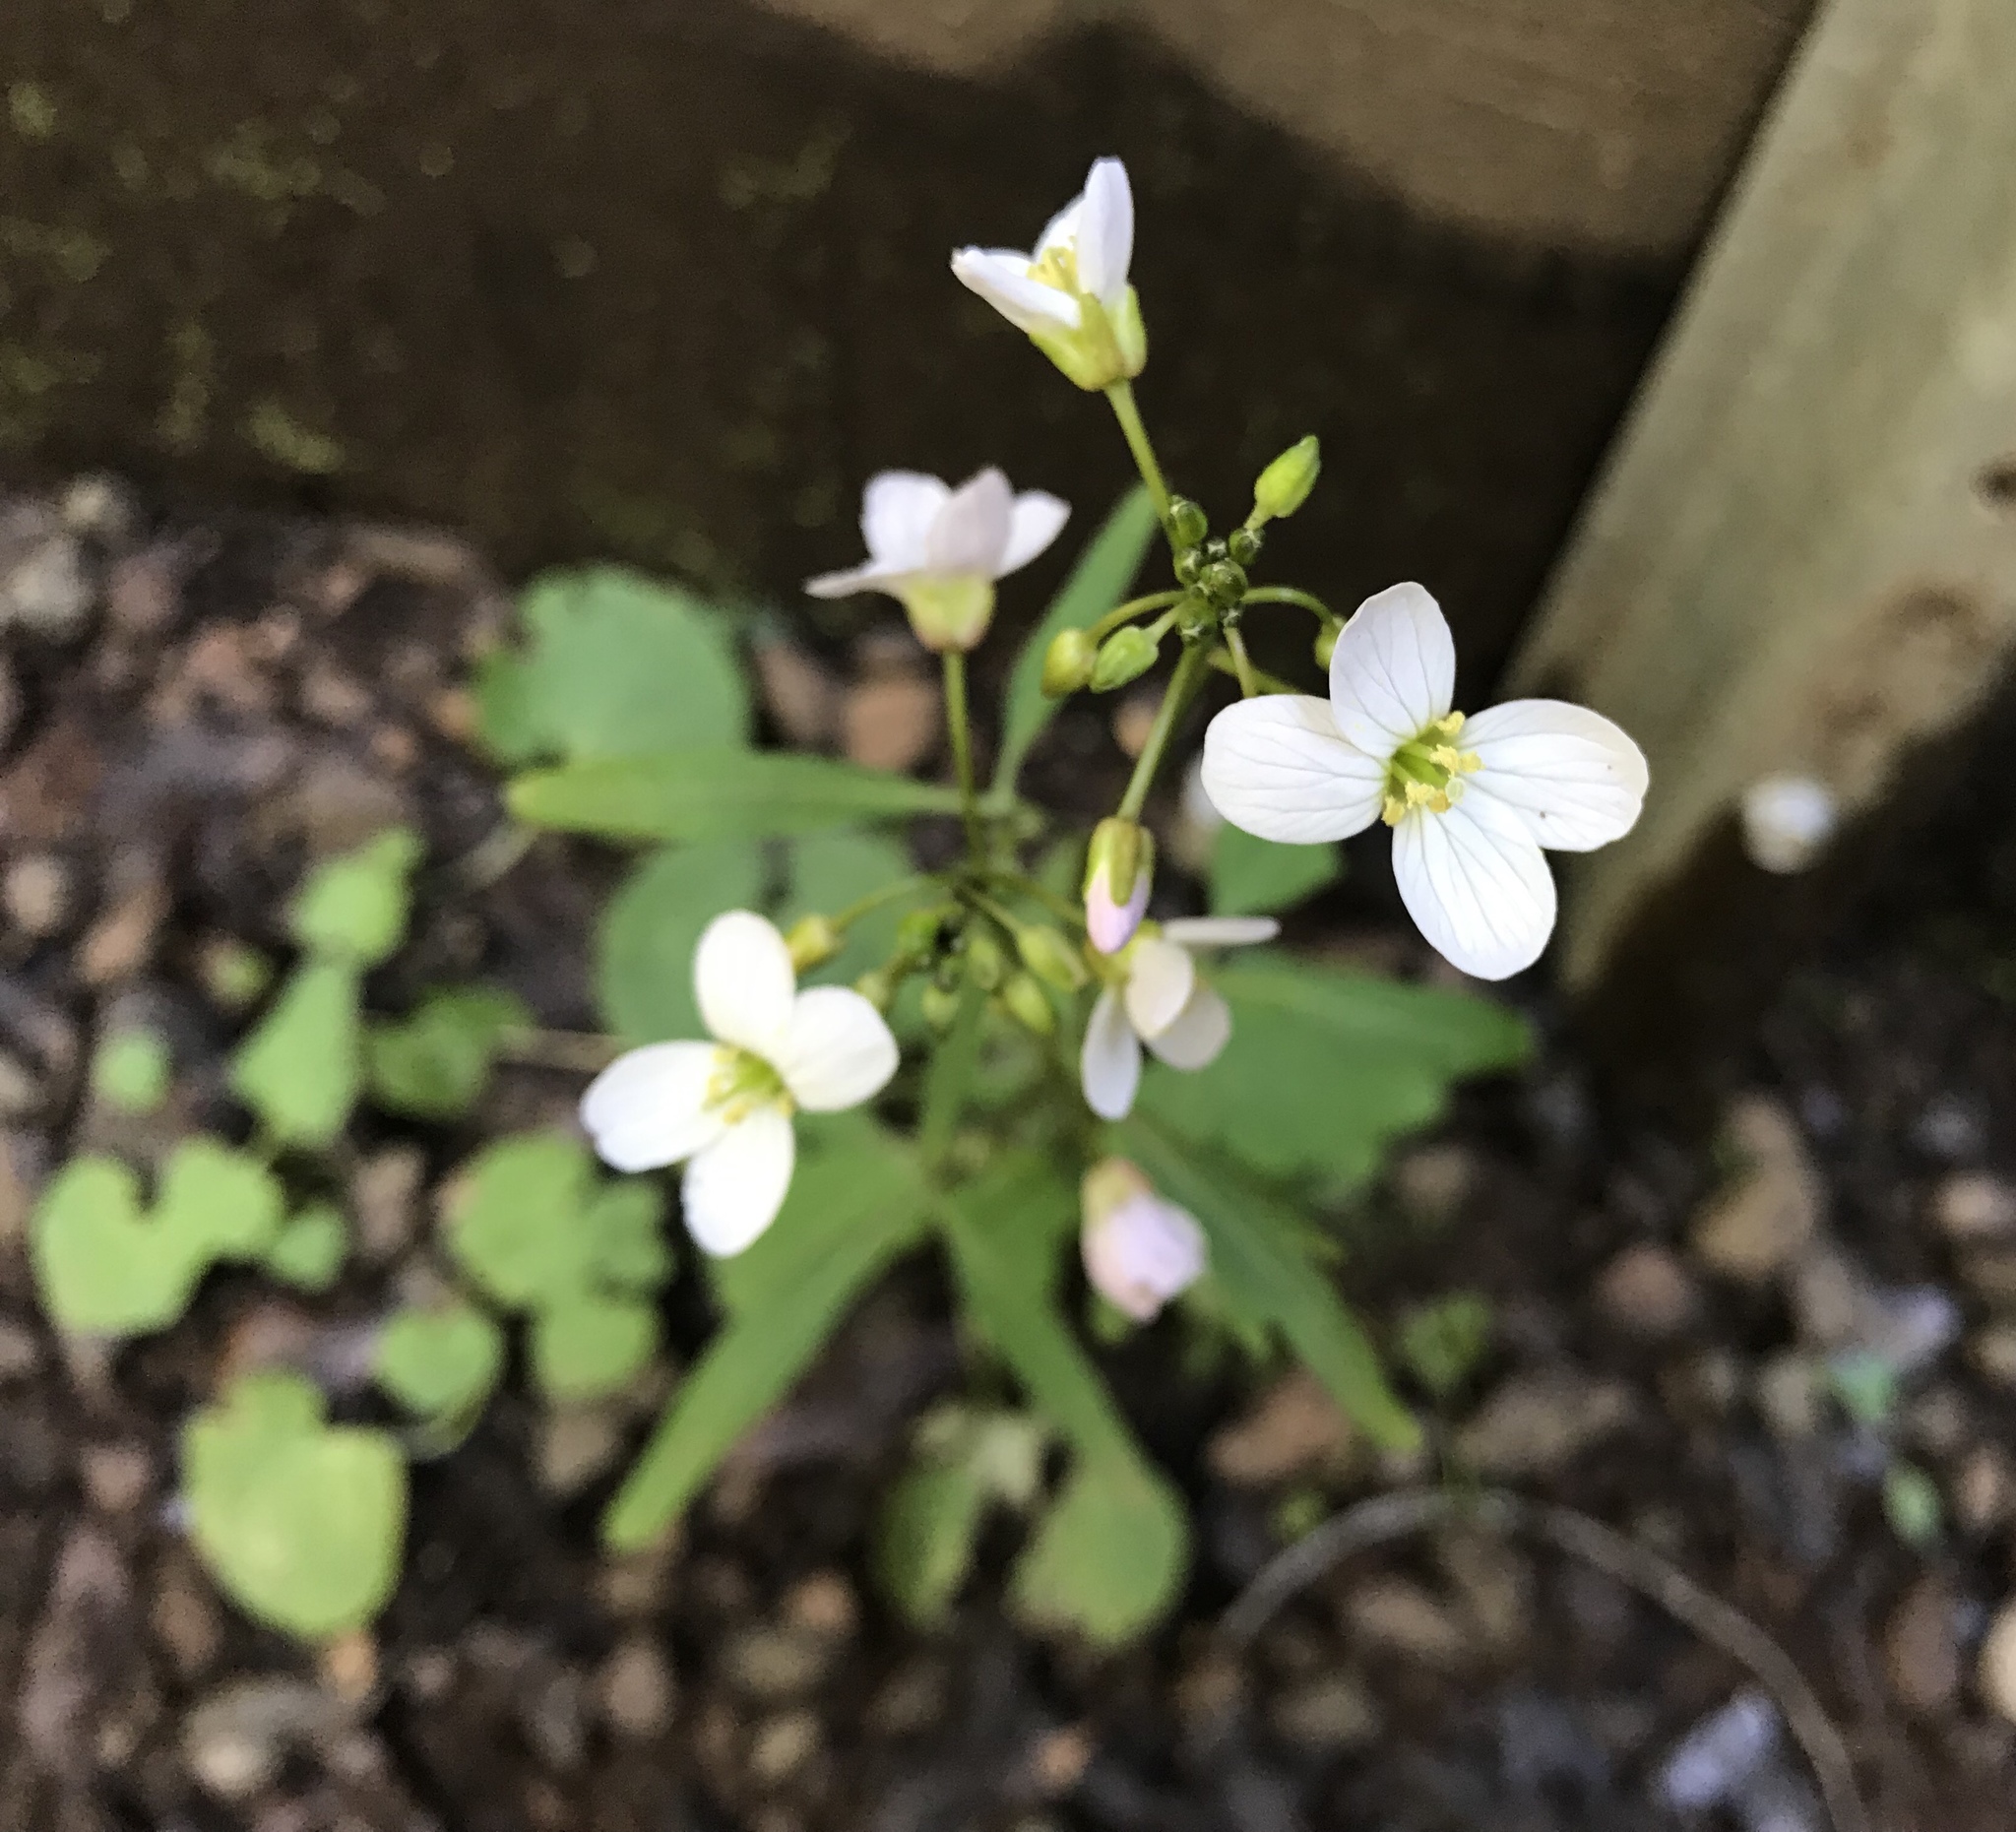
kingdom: Plantae
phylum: Tracheophyta
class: Magnoliopsida
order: Brassicales
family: Brassicaceae
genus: Cardamine
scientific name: Cardamine californica
